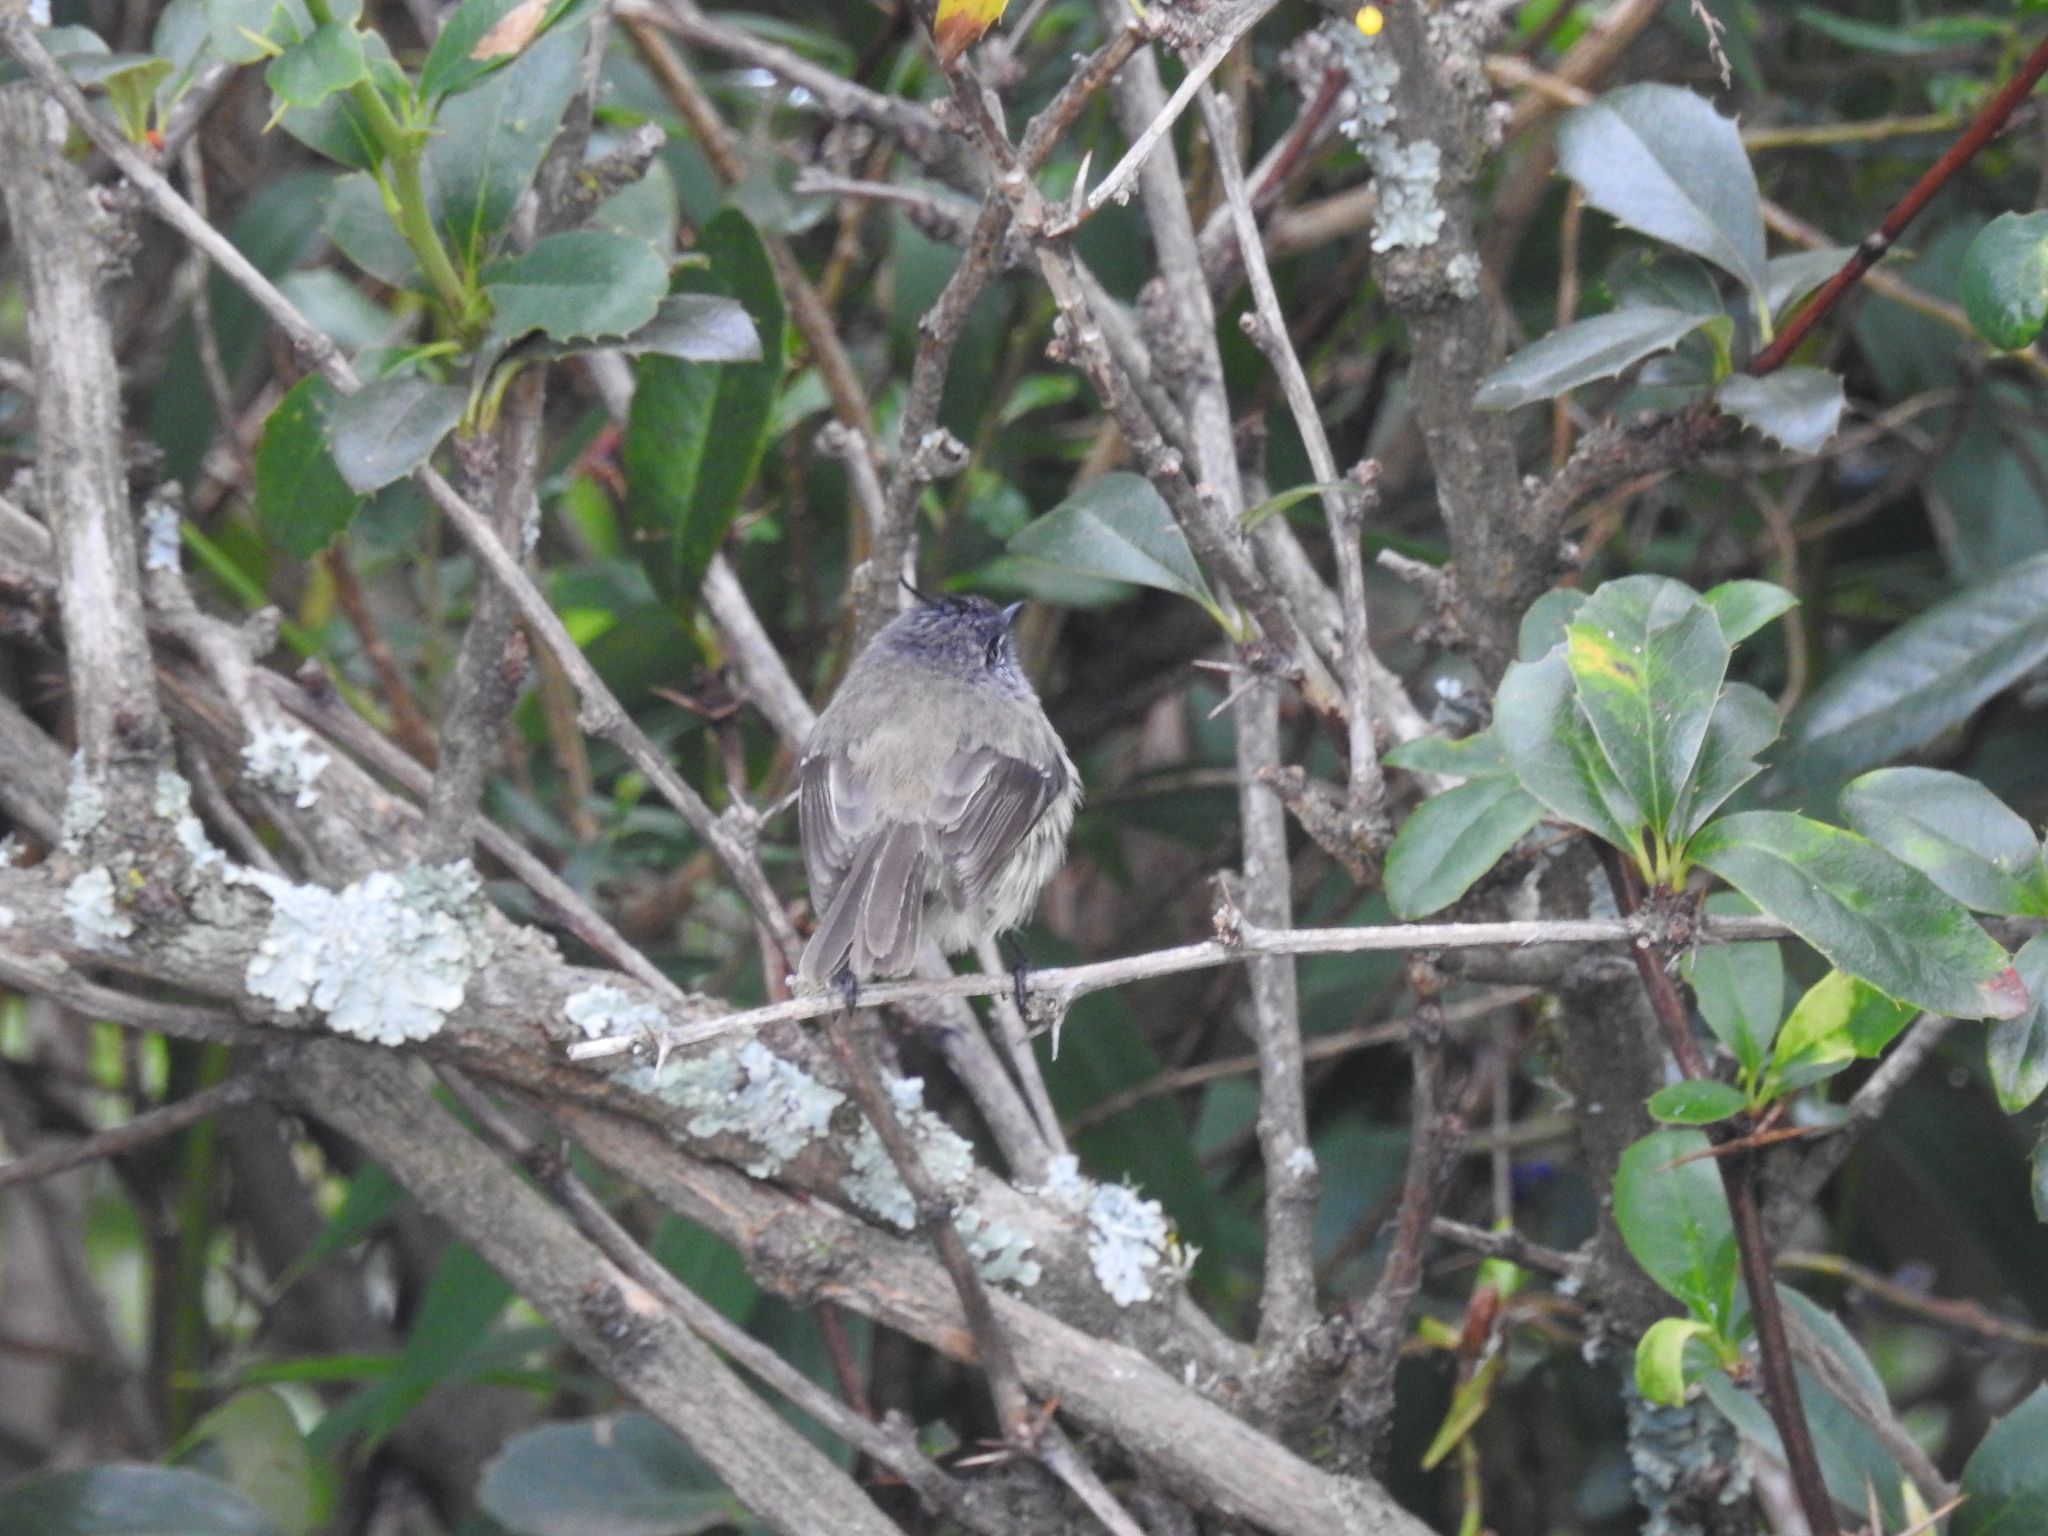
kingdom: Animalia
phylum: Chordata
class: Aves
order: Passeriformes
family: Tyrannidae
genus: Anairetes
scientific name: Anairetes parulus
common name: Tufted tit-tyrant
